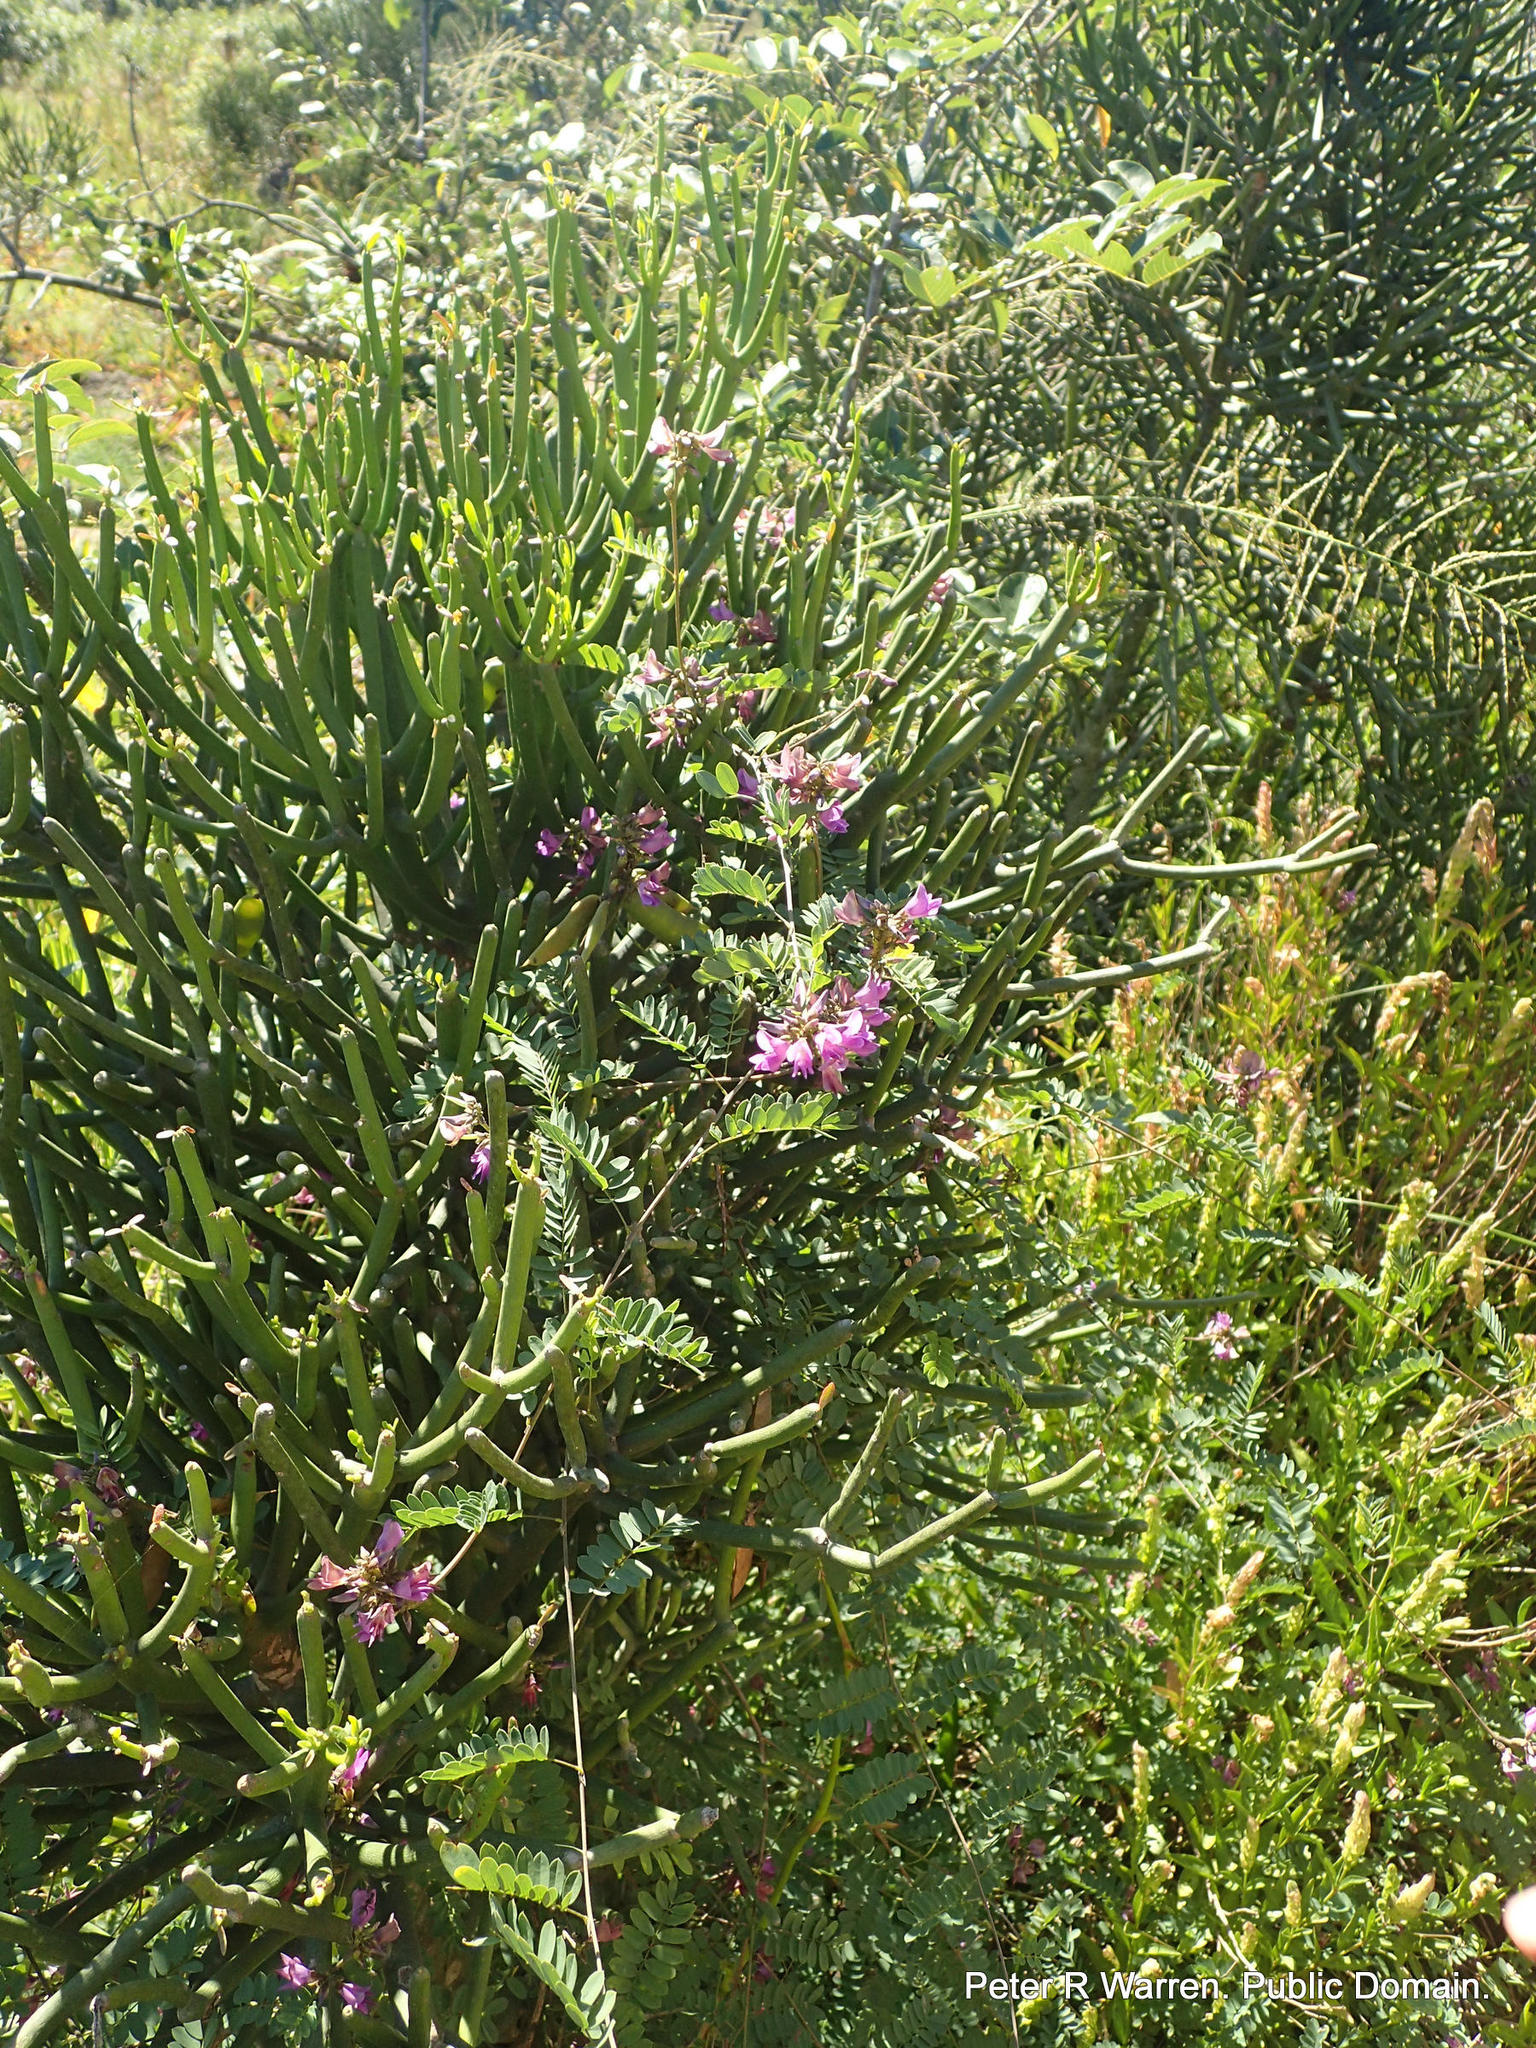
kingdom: Plantae
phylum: Tracheophyta
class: Magnoliopsida
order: Fabales
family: Fabaceae
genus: Abrus
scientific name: Abrus laevigatus
